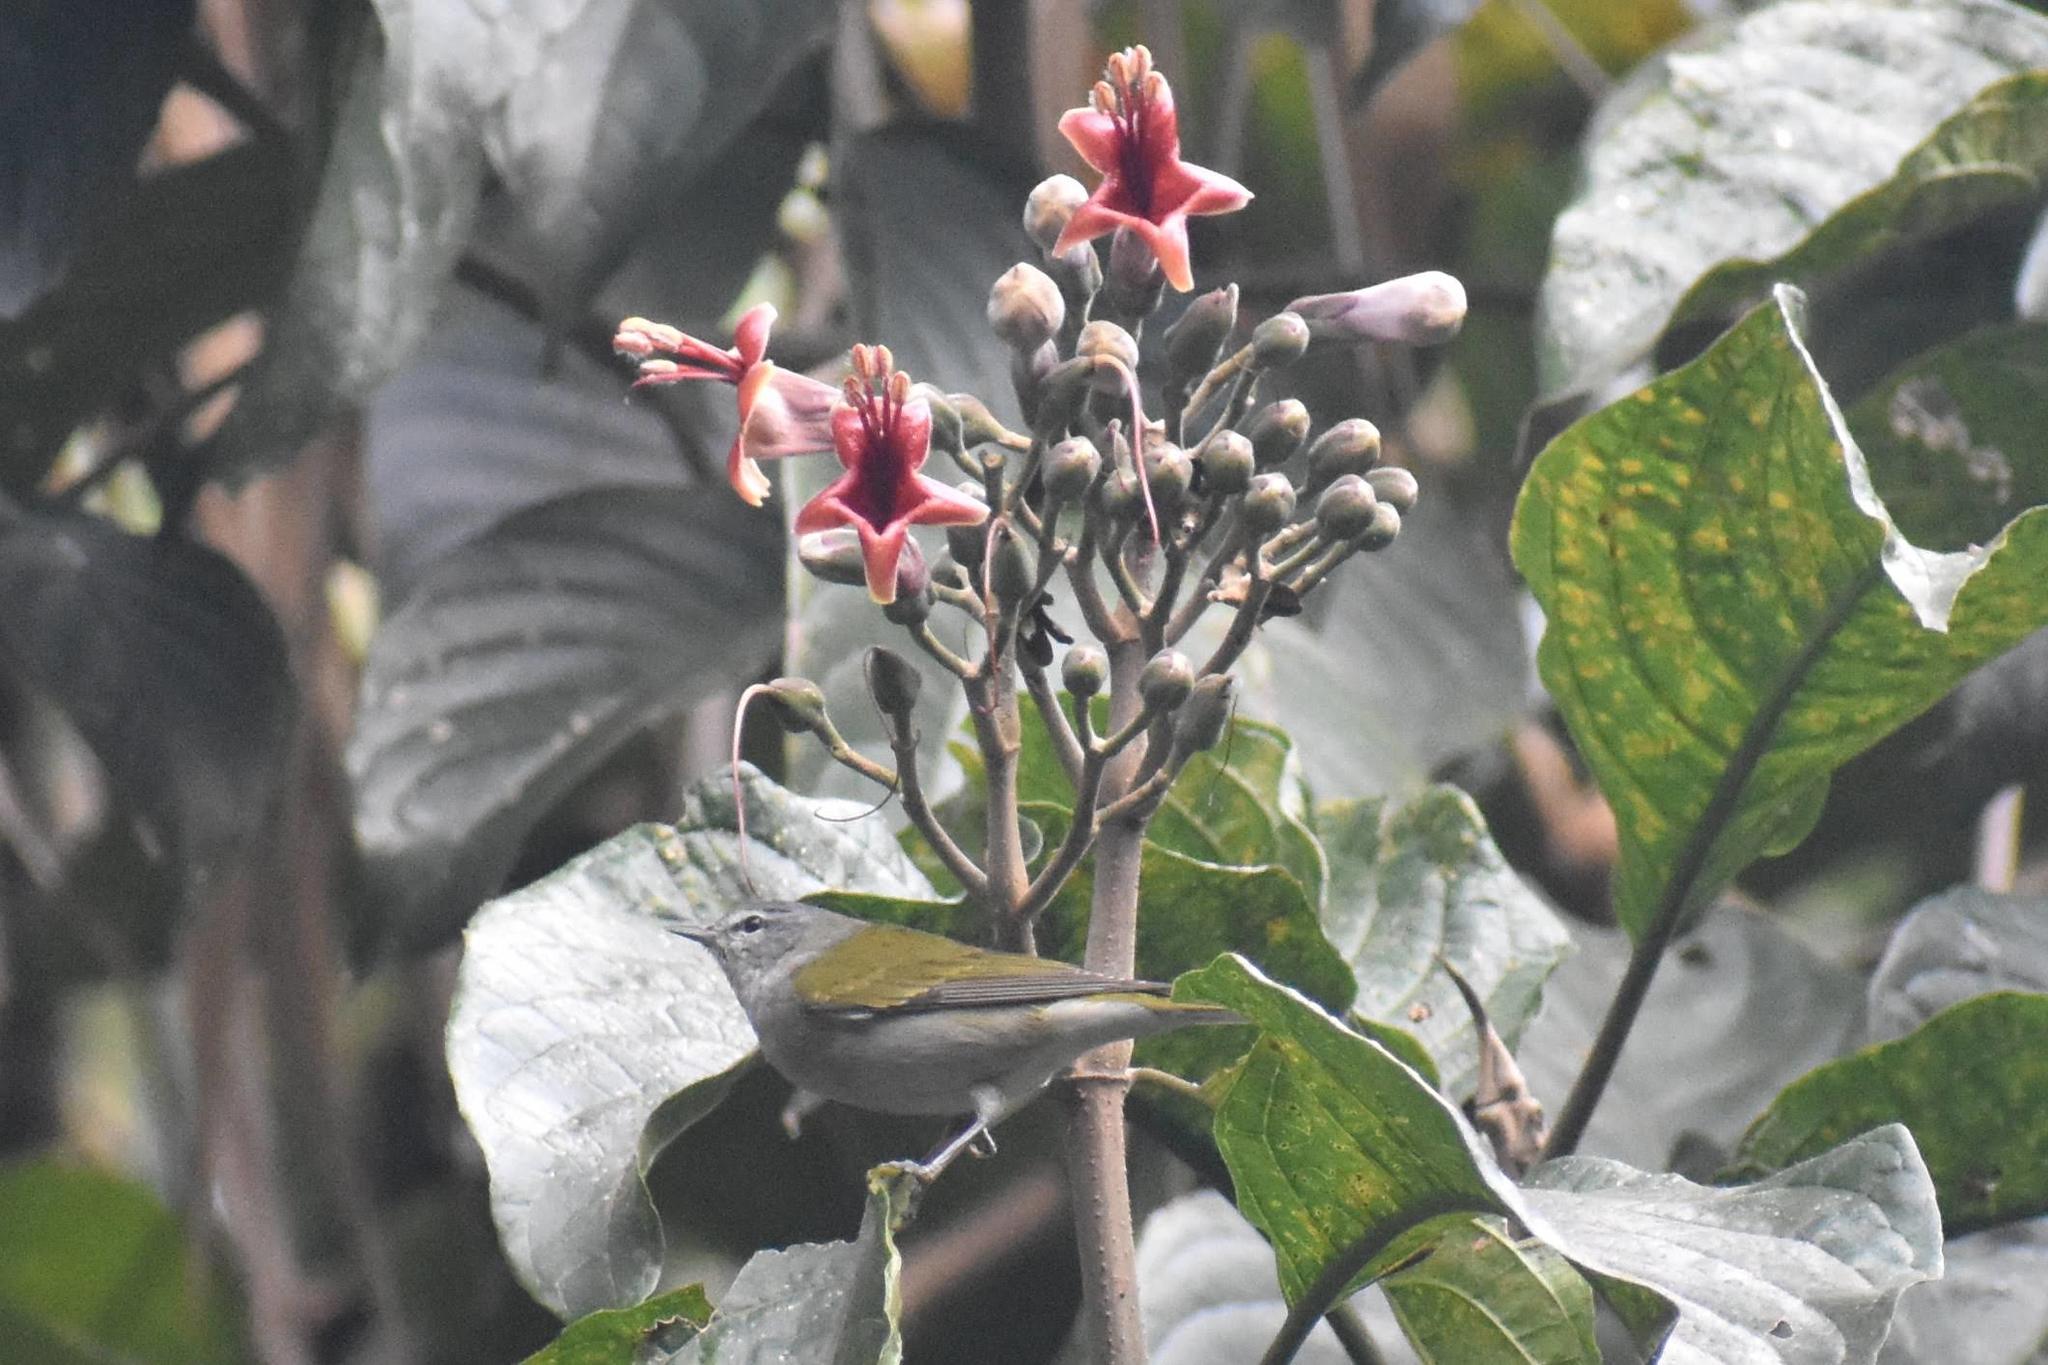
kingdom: Animalia
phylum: Chordata
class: Aves
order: Passeriformes
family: Parulidae
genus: Leiothlypis
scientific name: Leiothlypis peregrina
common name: Tennessee warbler
